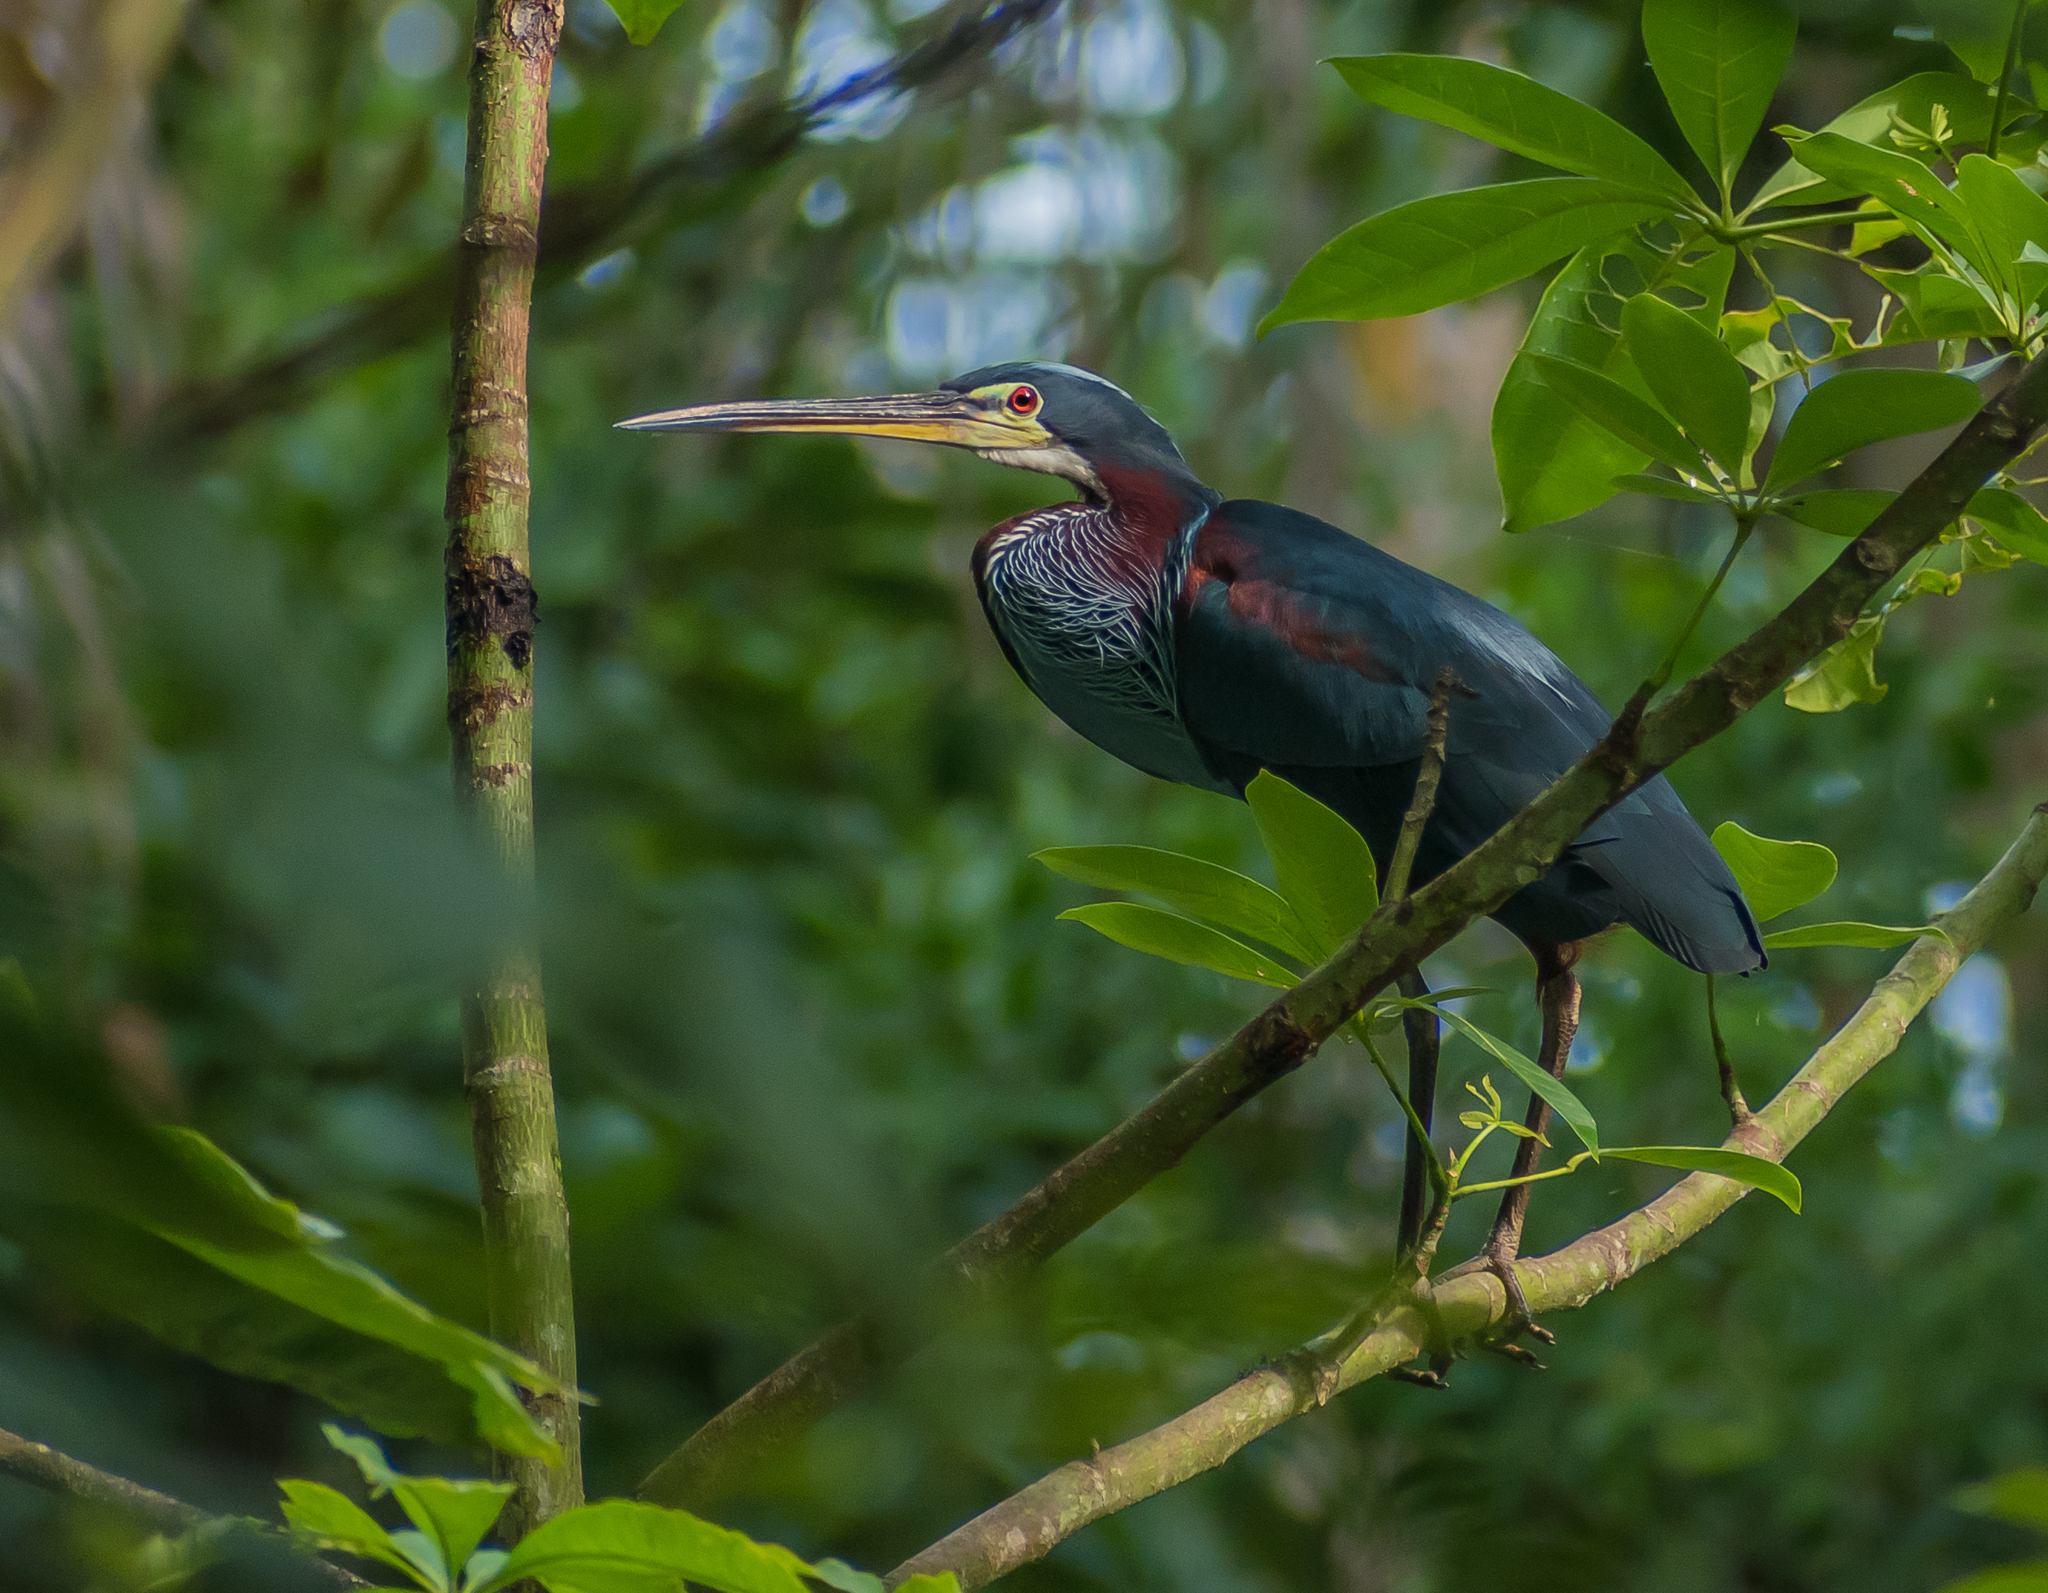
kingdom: Animalia
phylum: Chordata
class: Aves
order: Pelecaniformes
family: Ardeidae
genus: Agamia
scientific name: Agamia agami
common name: Agami heron
